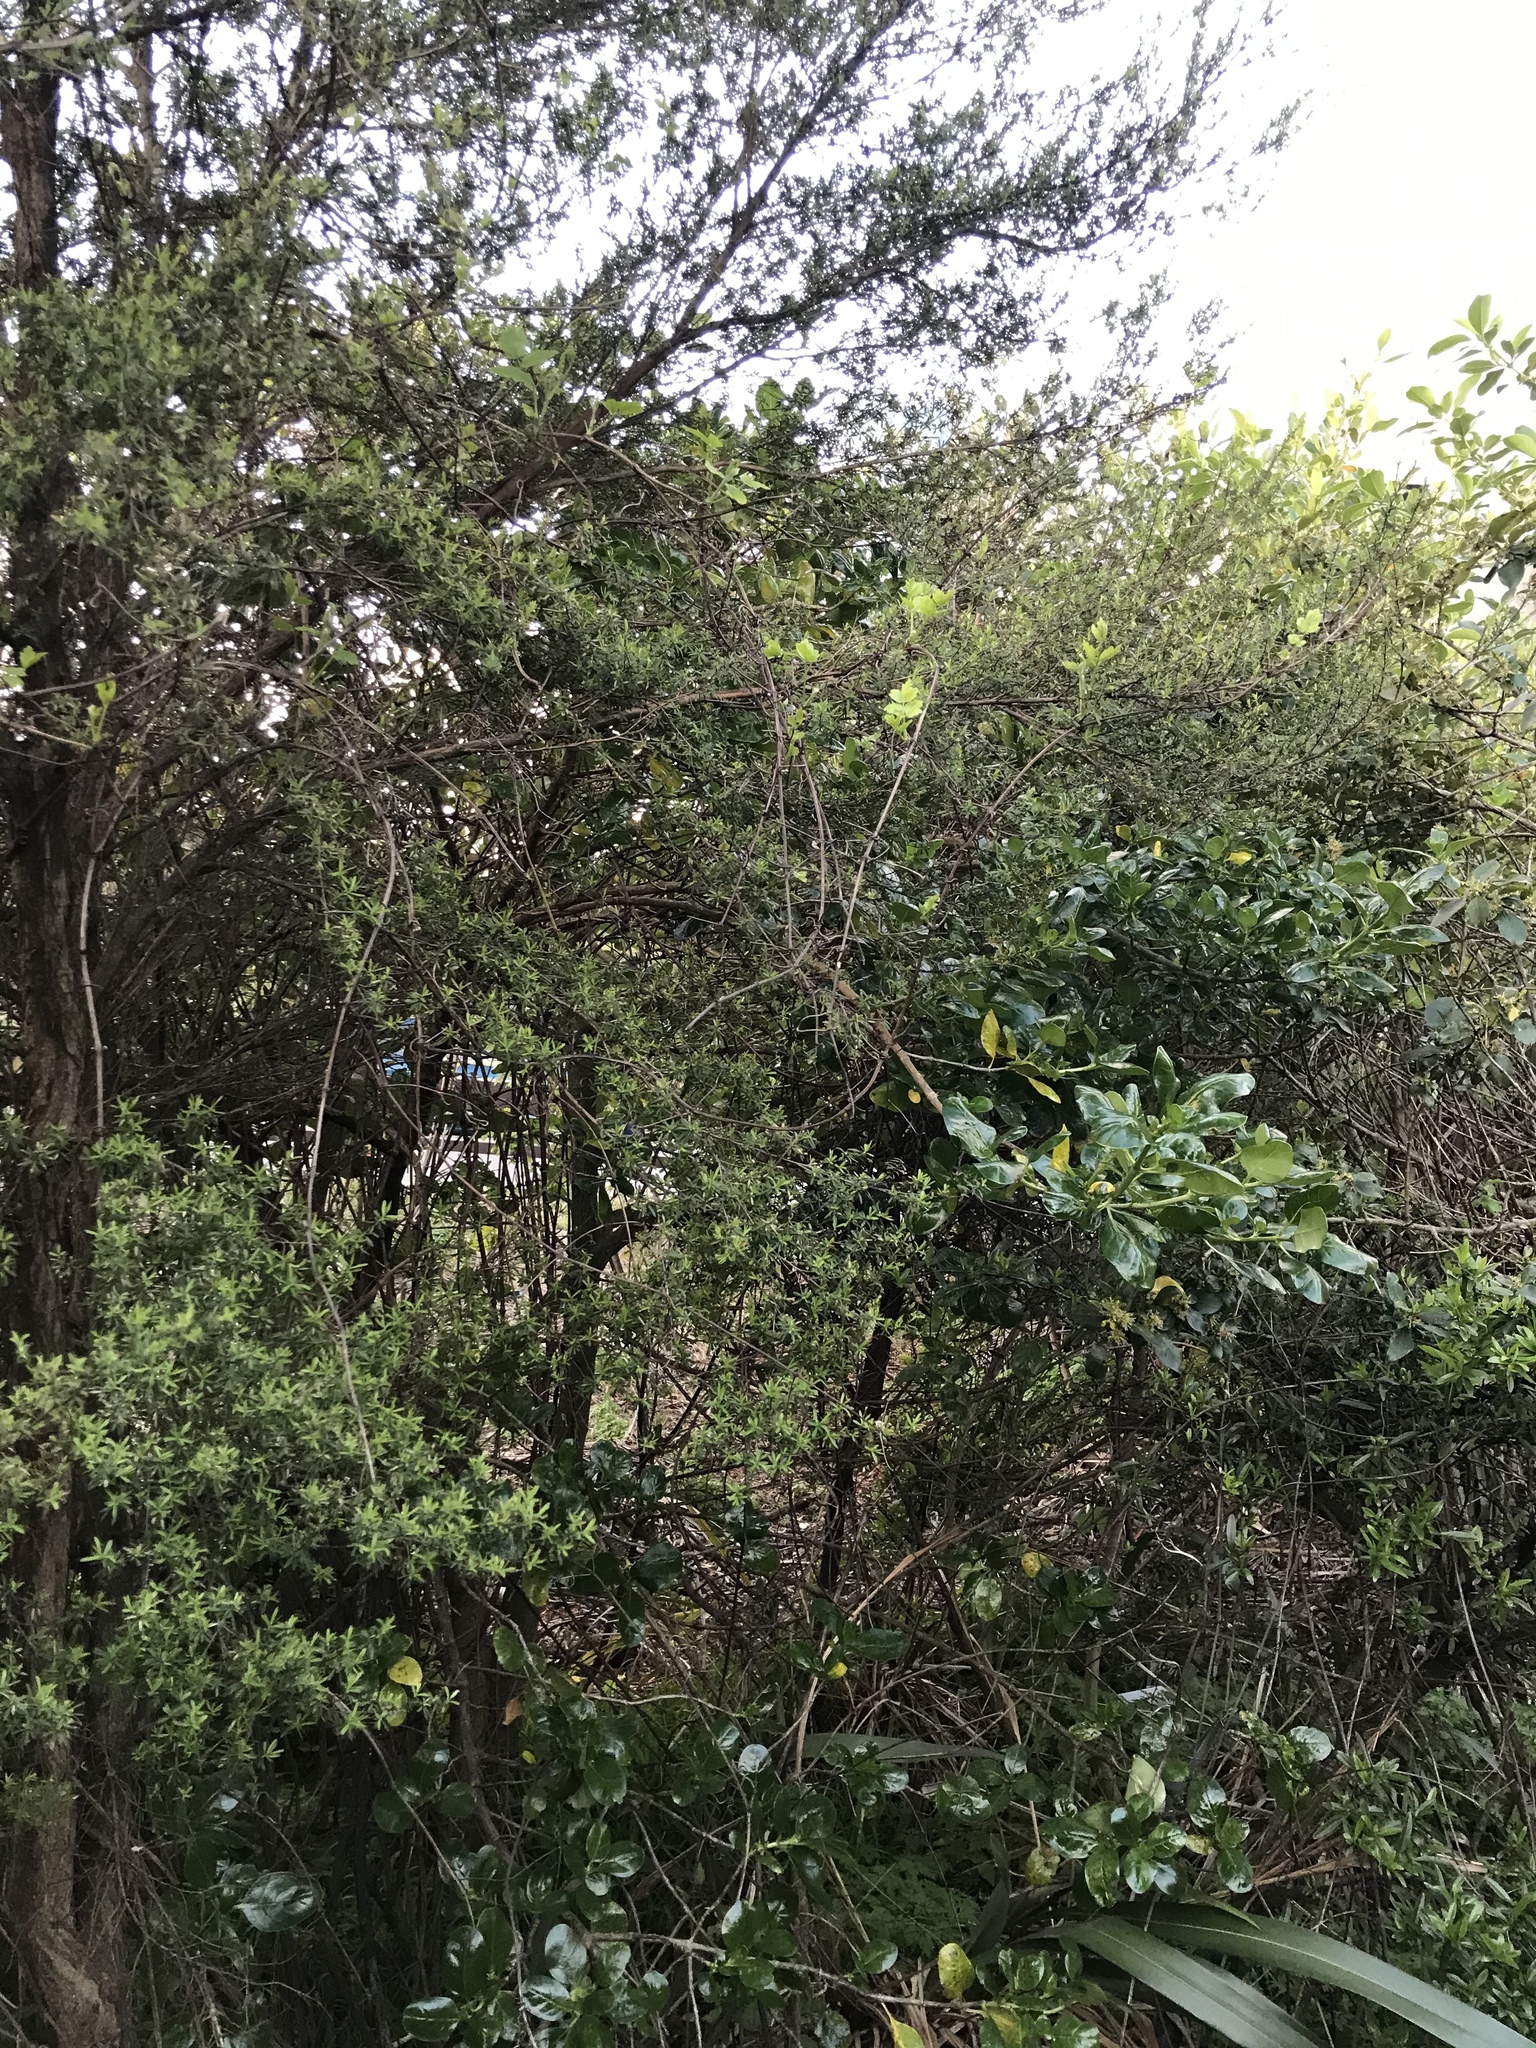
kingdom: Plantae
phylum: Tracheophyta
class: Magnoliopsida
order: Ranunculales
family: Ranunculaceae
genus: Clematis
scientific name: Clematis vitalba
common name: Evergreen clematis
